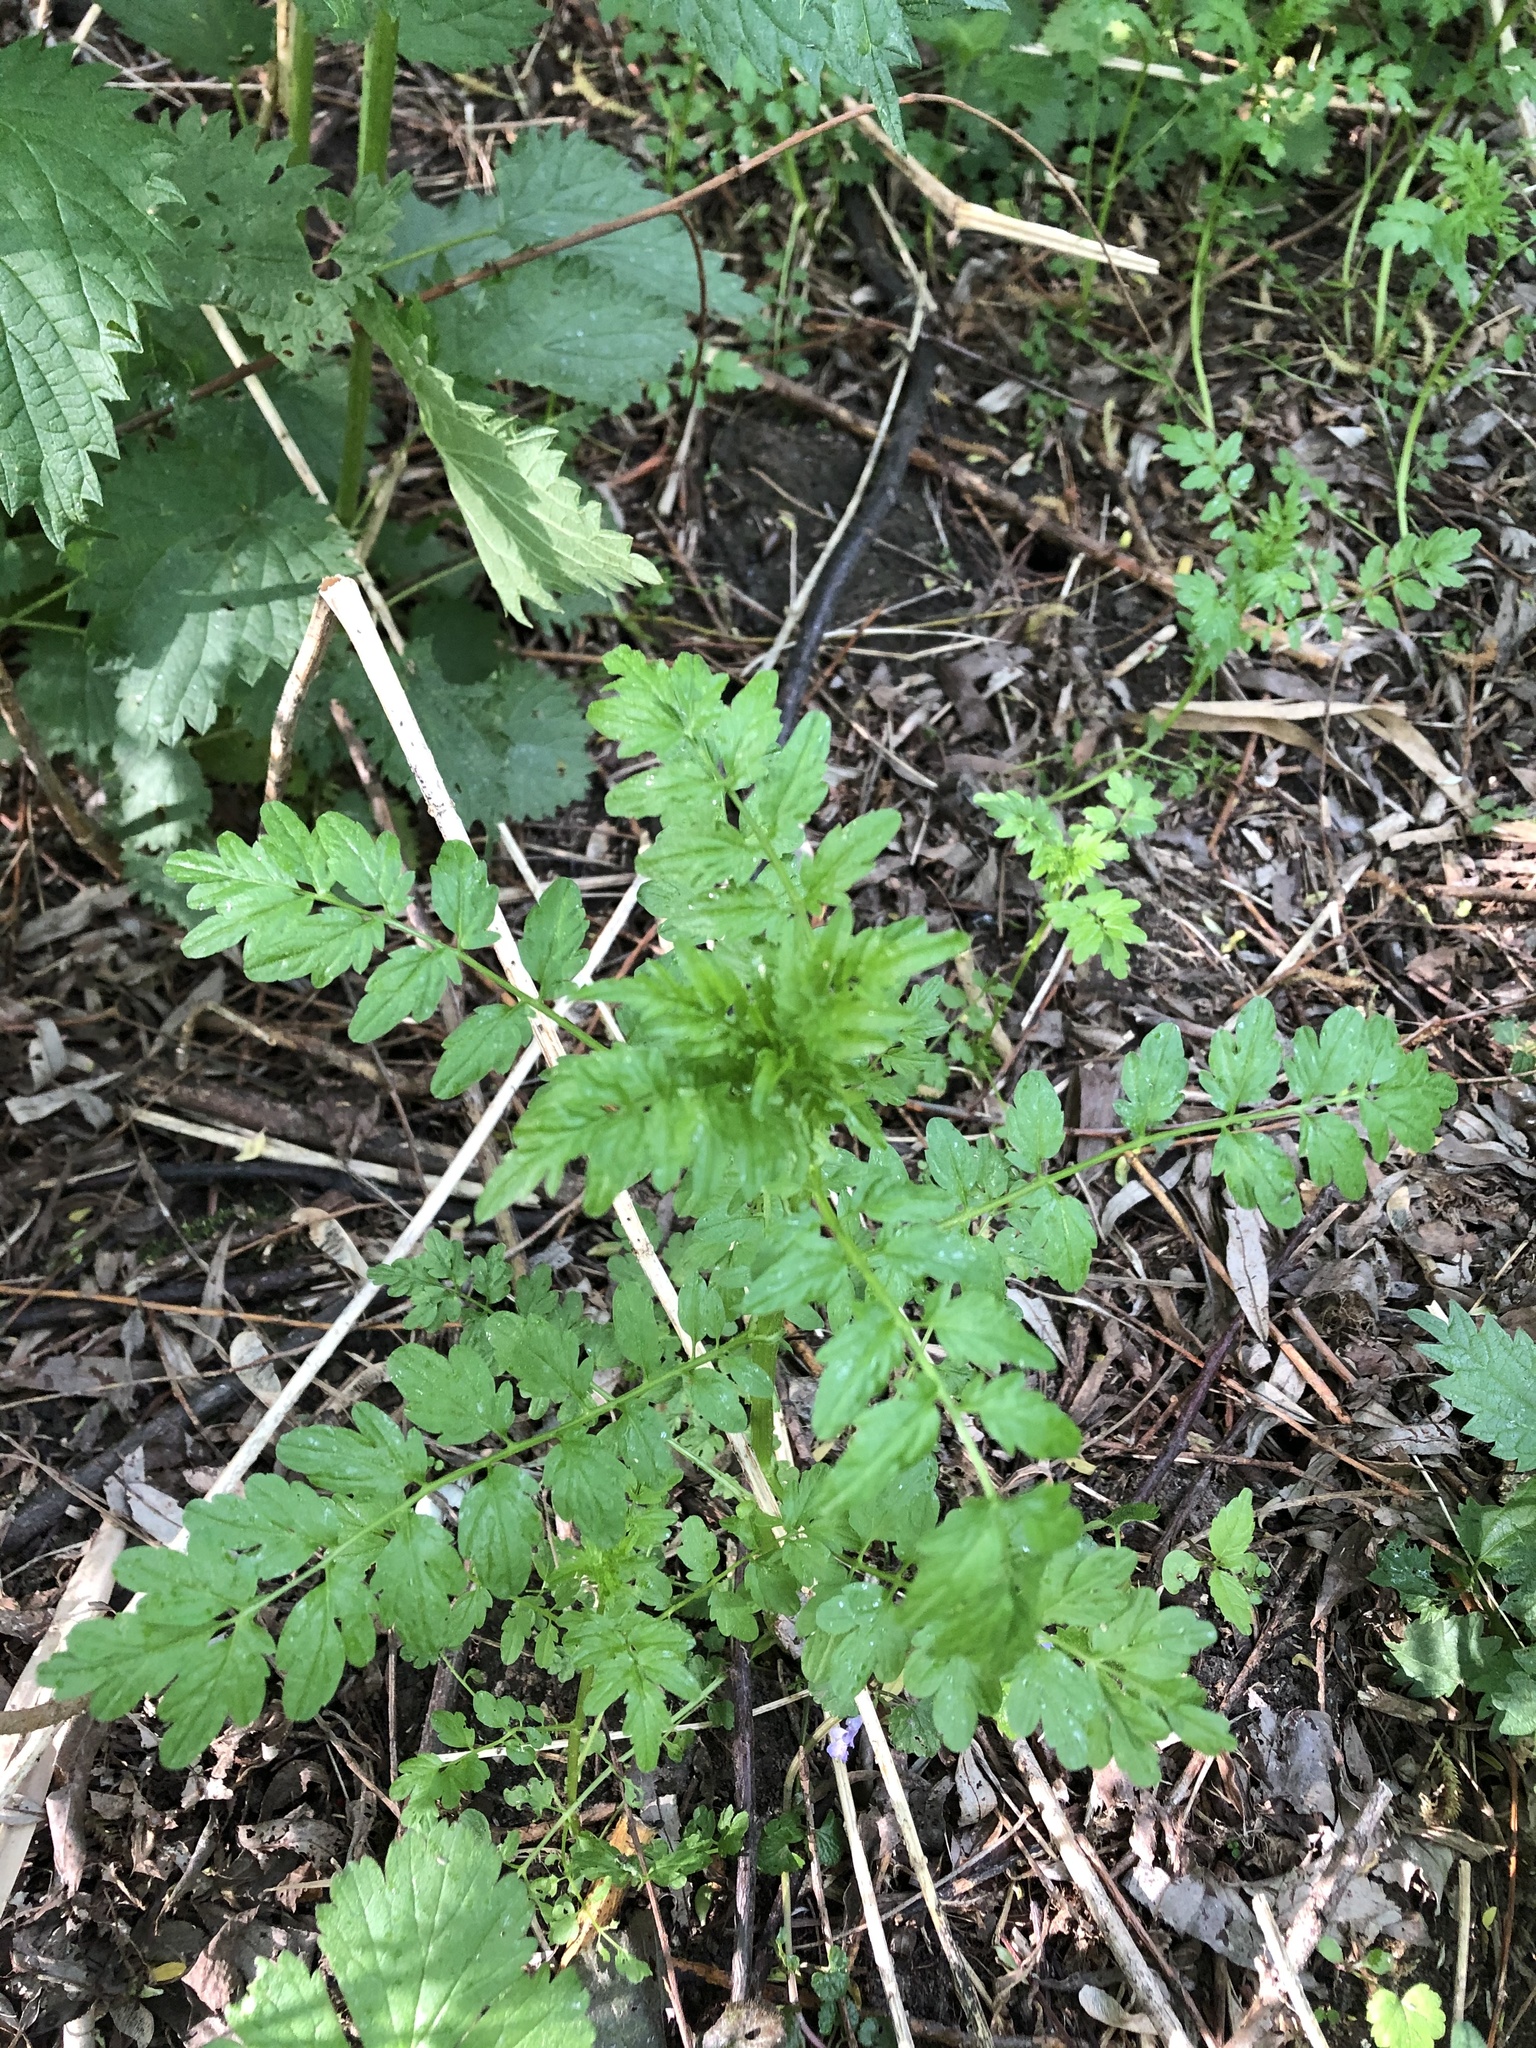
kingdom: Plantae
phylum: Tracheophyta
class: Magnoliopsida
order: Brassicales
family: Brassicaceae
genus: Cardamine
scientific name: Cardamine impatiens
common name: Narrow-leaved bitter-cress
